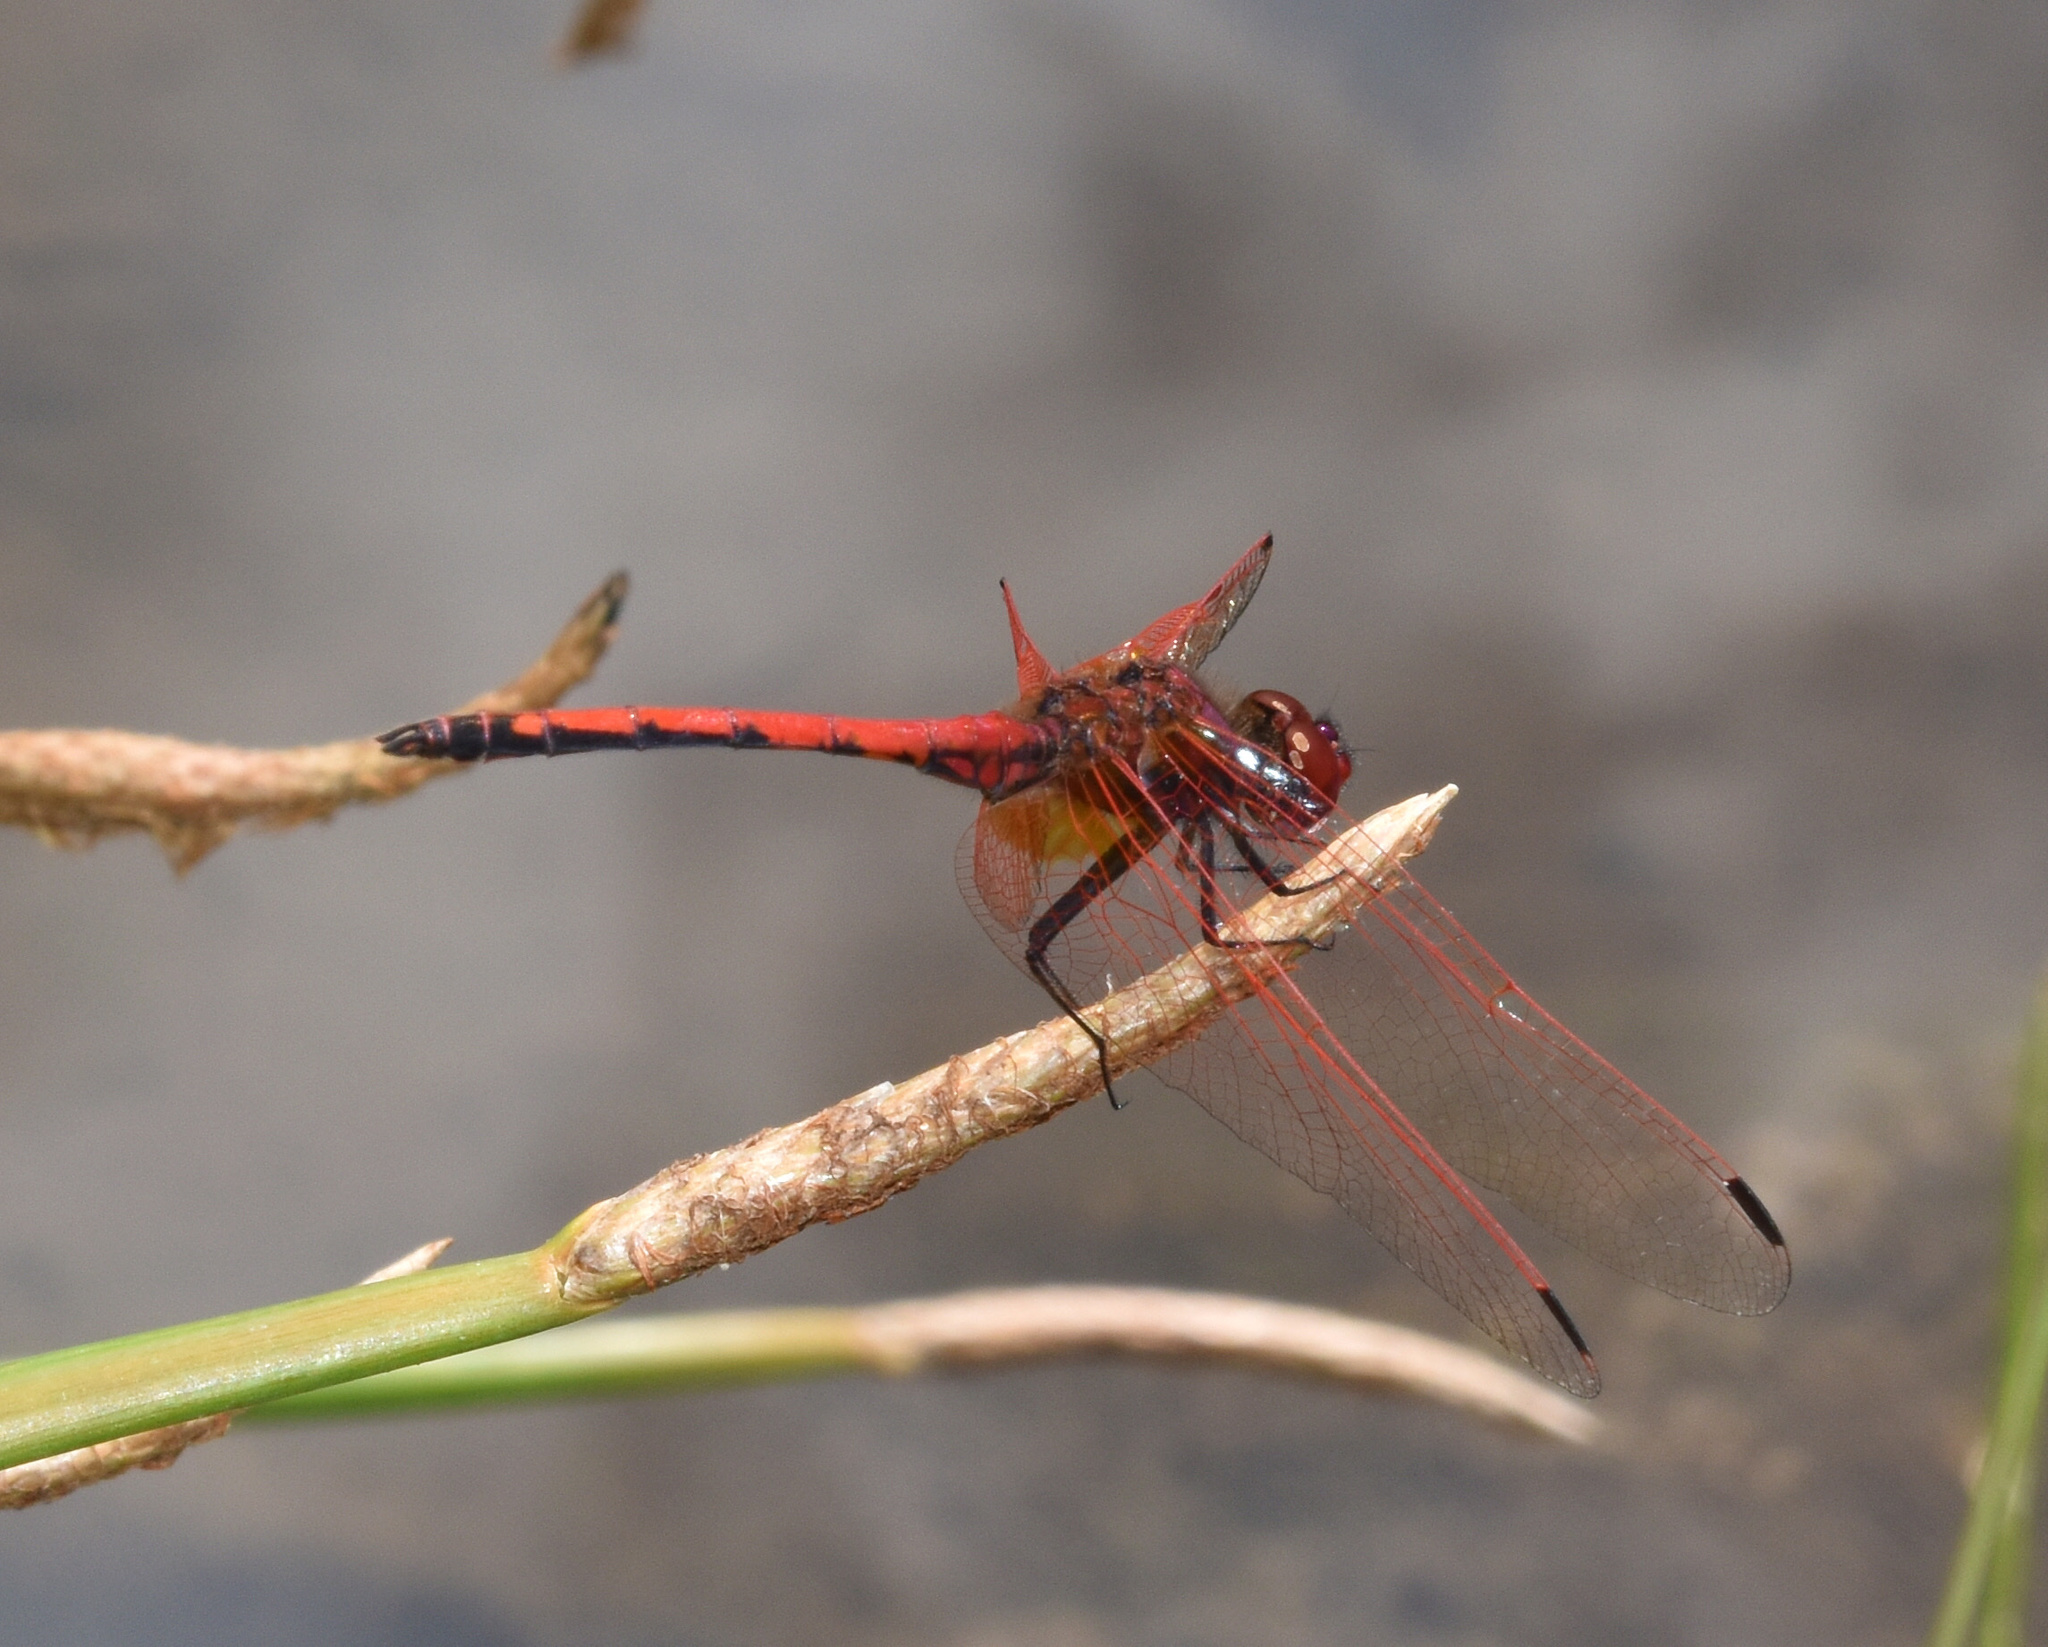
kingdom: Animalia
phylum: Arthropoda
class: Insecta
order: Odonata
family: Libellulidae
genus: Trithemis
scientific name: Trithemis arteriosa
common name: Red-veined dropwing
